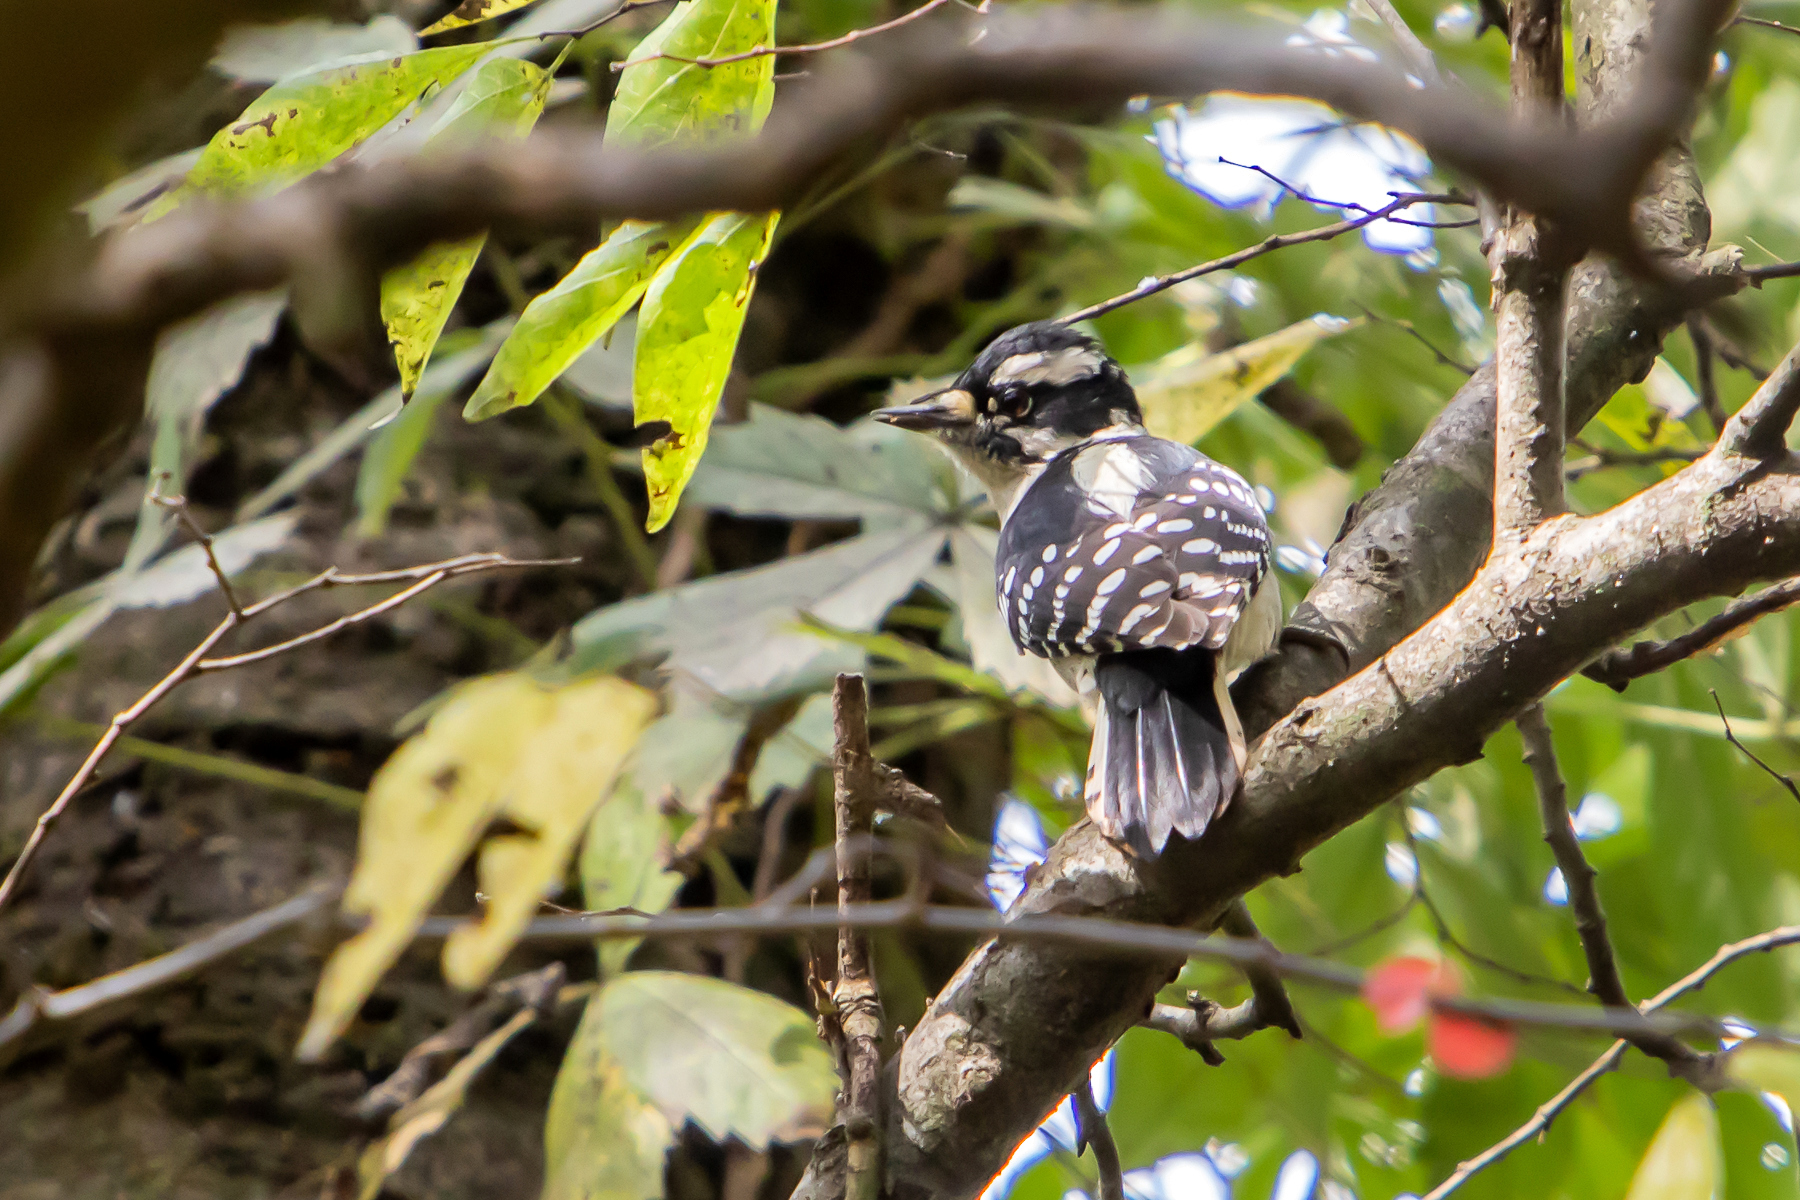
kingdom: Animalia
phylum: Chordata
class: Aves
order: Piciformes
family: Picidae
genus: Dryobates
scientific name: Dryobates pubescens
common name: Downy woodpecker
